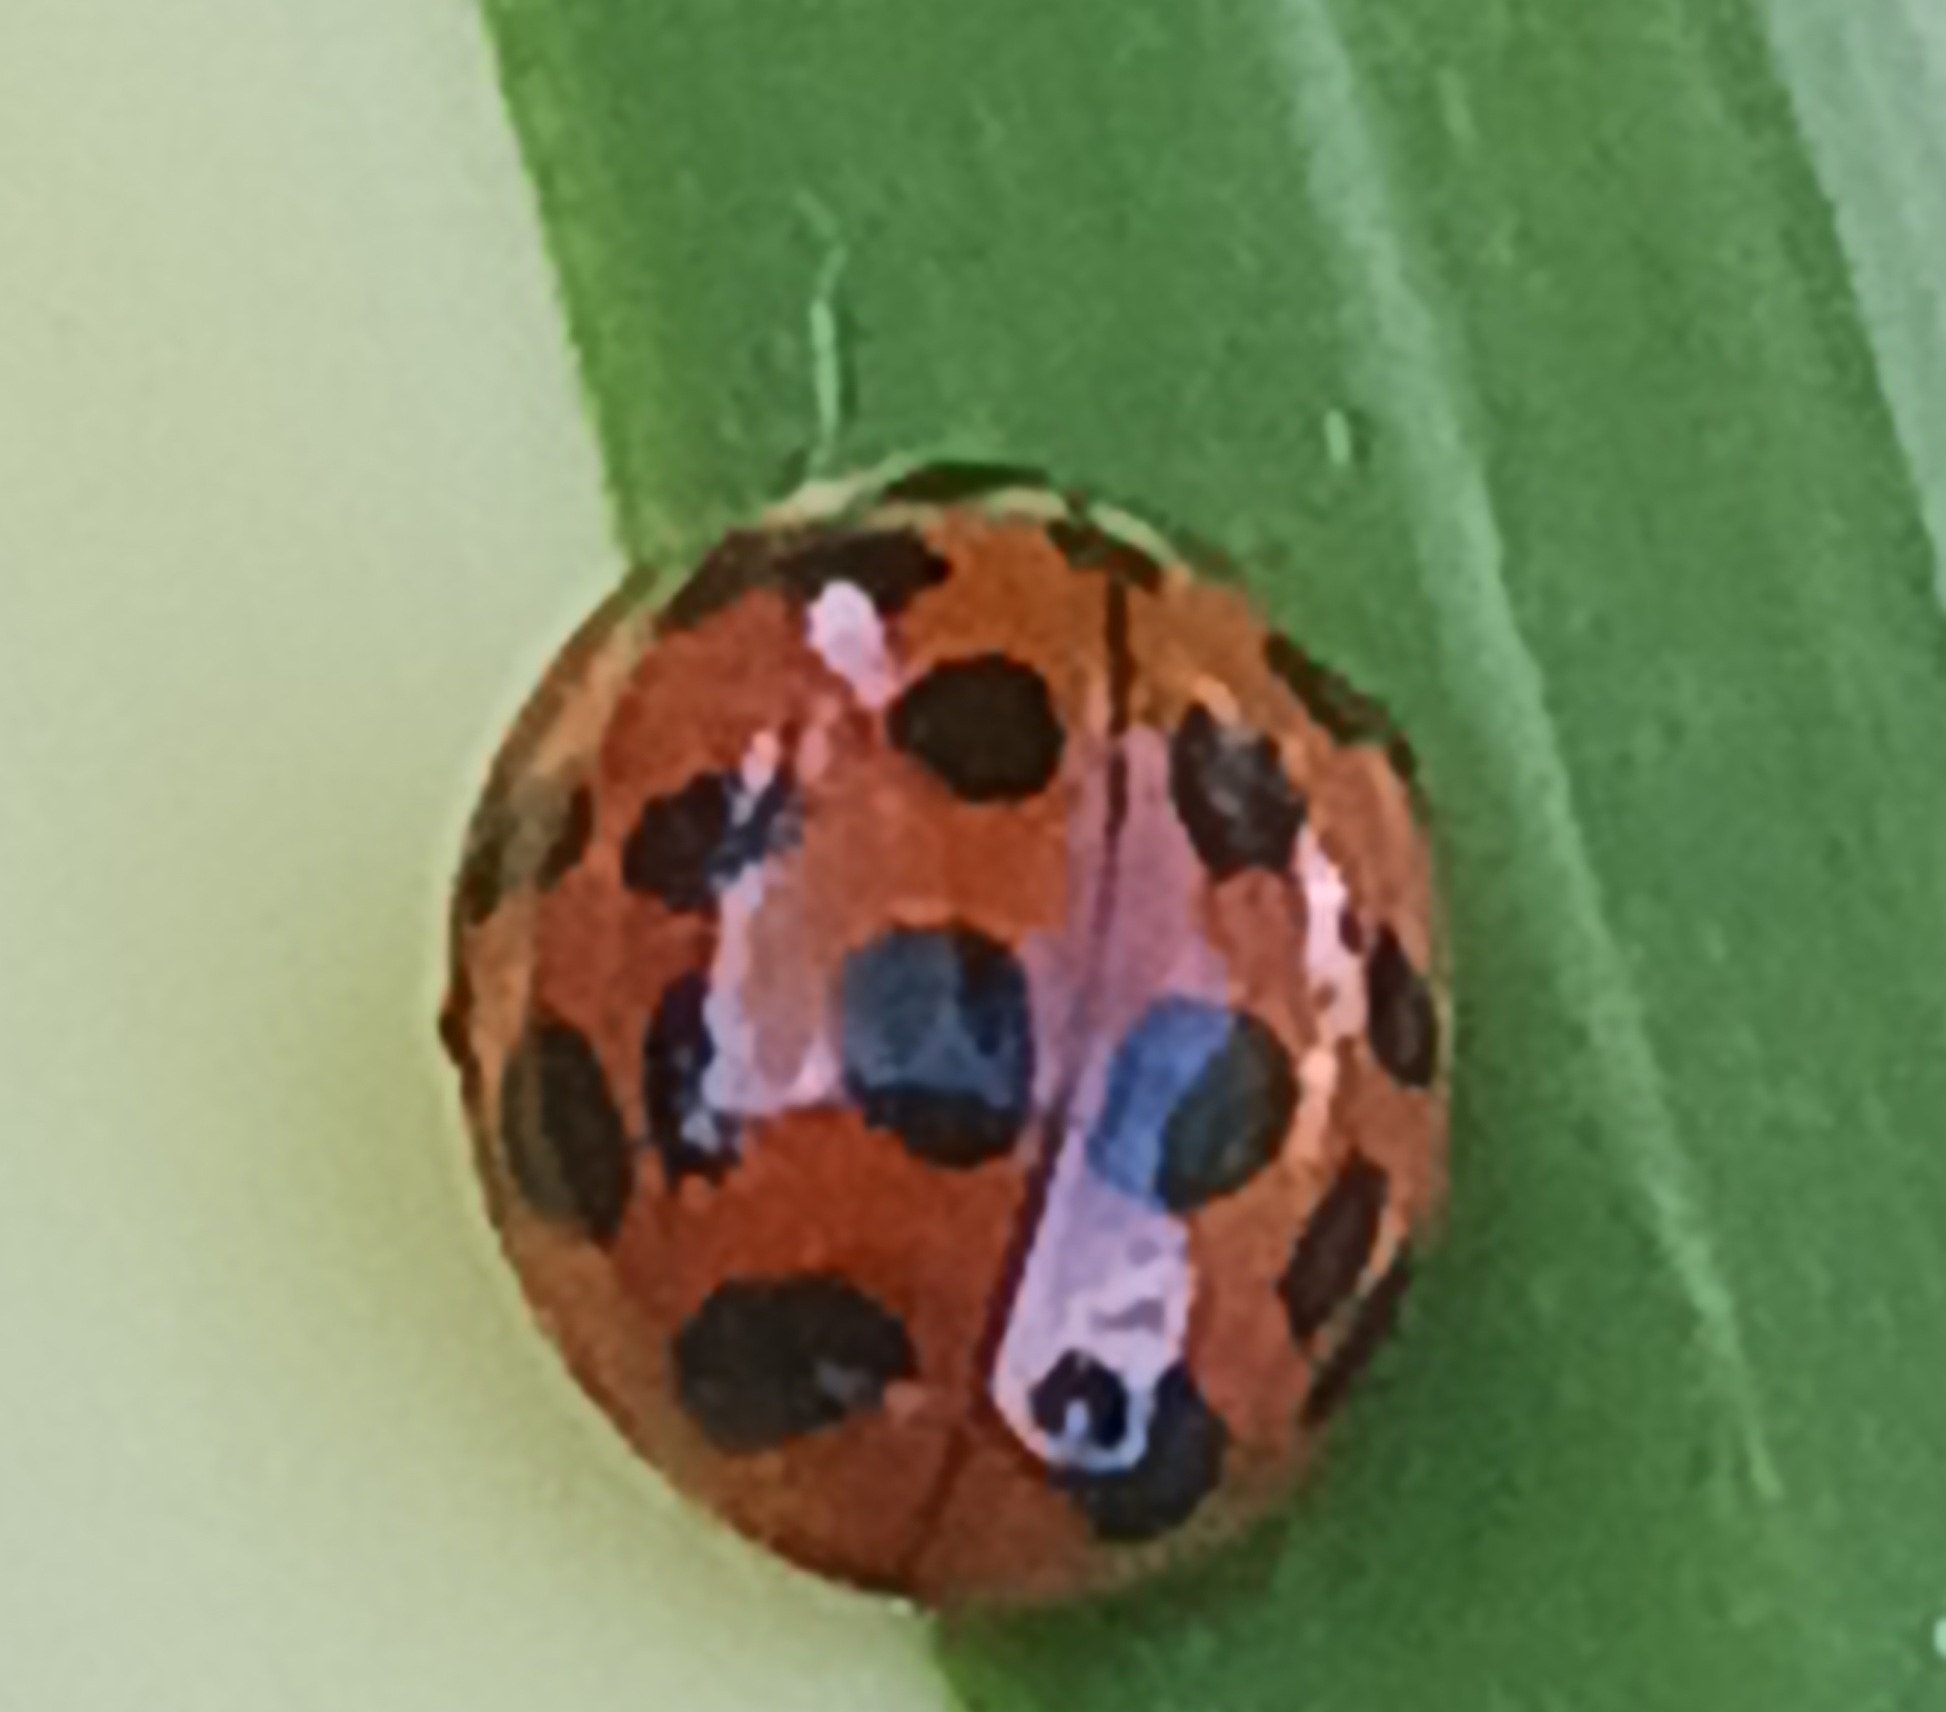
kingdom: Animalia
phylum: Arthropoda
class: Insecta
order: Coleoptera
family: Coccinellidae
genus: Harmonia
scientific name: Harmonia axyridis
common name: Harlequin ladybird
